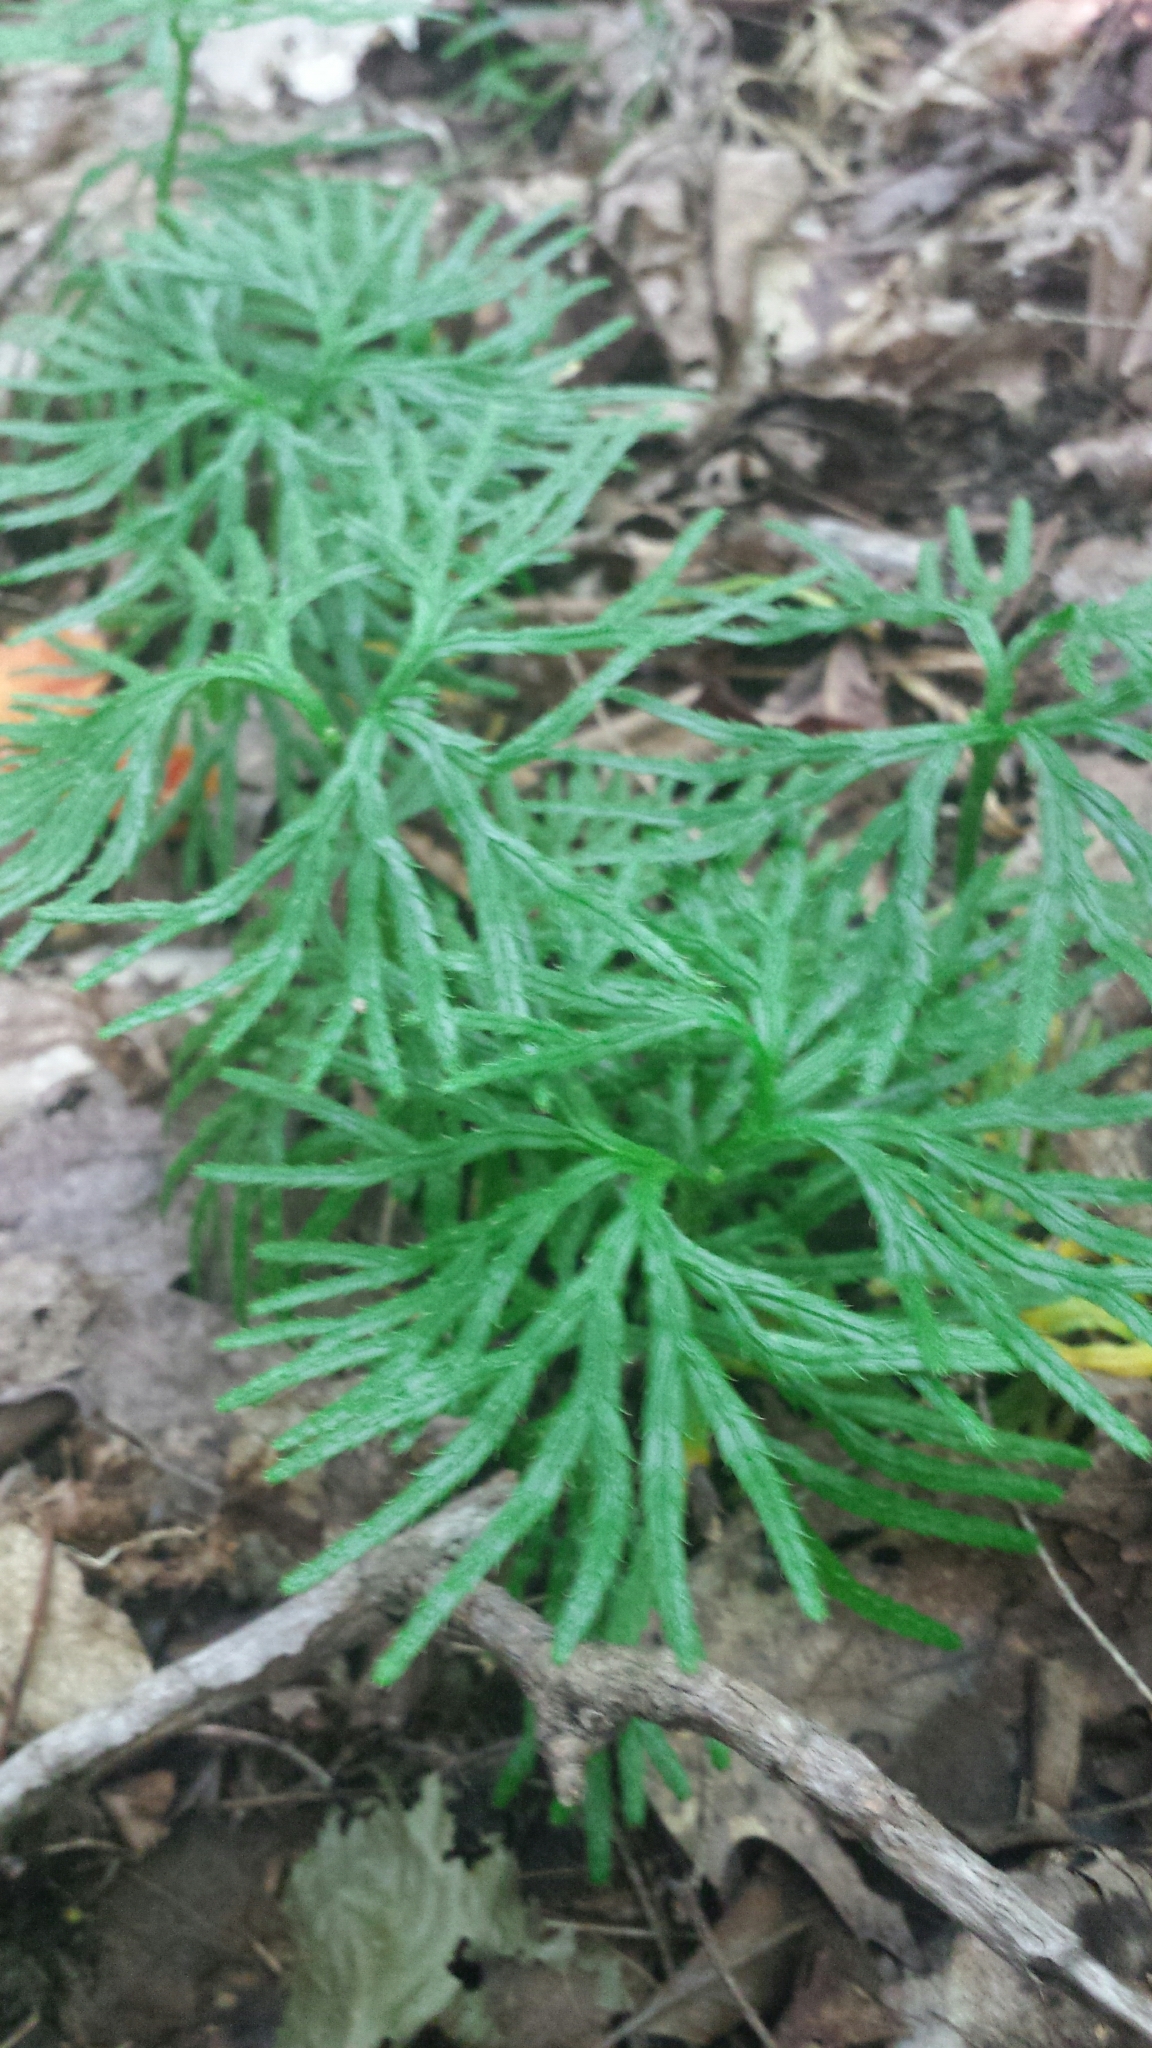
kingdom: Plantae
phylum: Tracheophyta
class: Lycopodiopsida
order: Lycopodiales
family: Lycopodiaceae
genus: Diphasiastrum
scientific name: Diphasiastrum digitatum
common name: Southern running-pine
